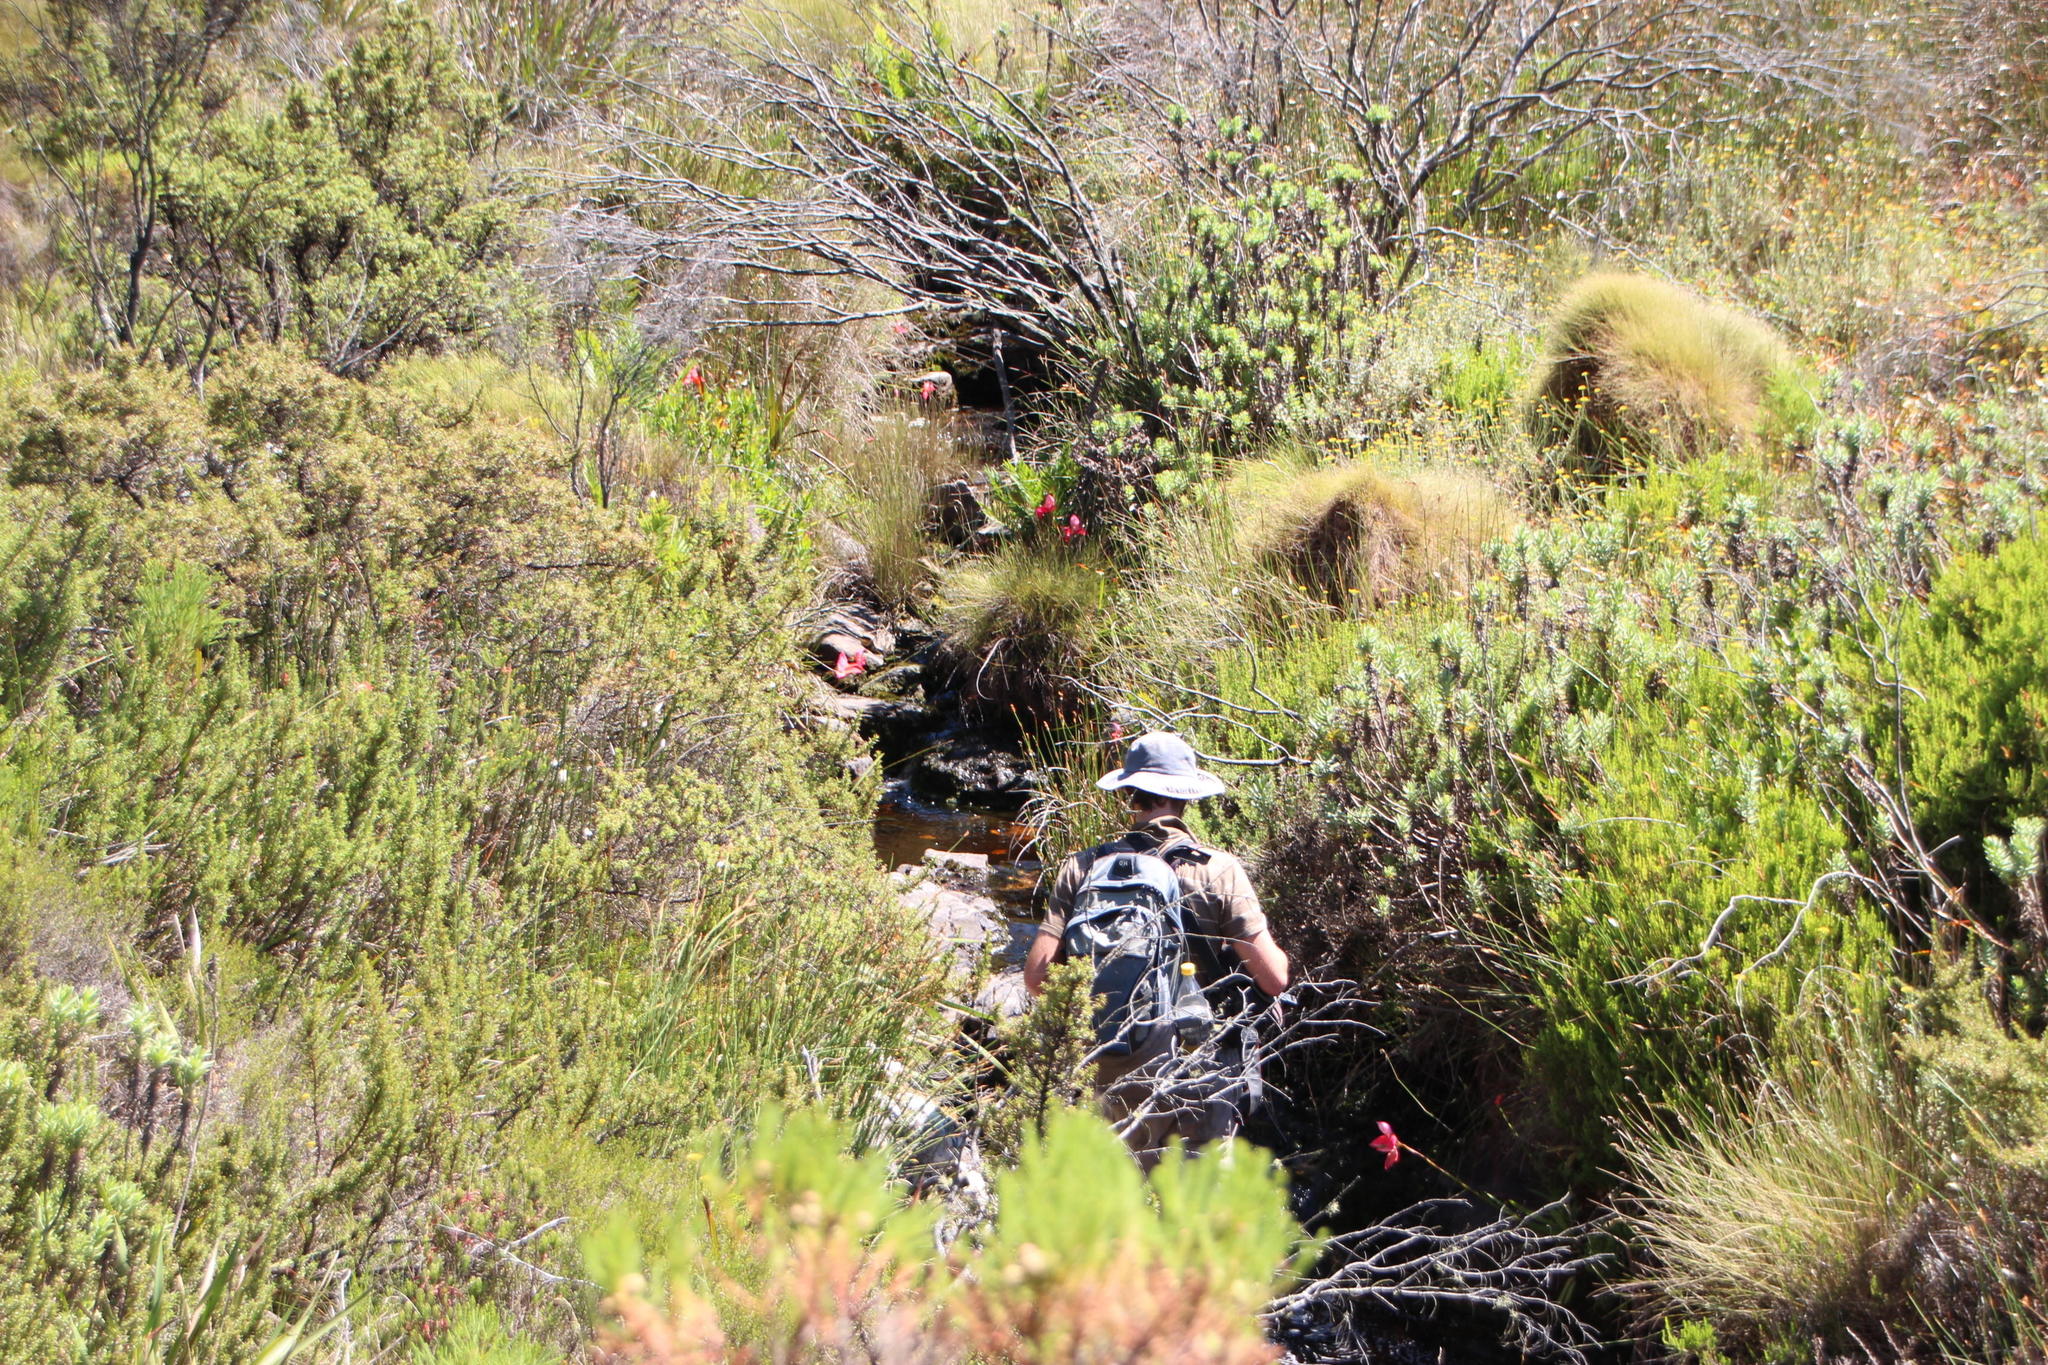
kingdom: Plantae
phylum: Tracheophyta
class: Liliopsida
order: Asparagales
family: Orchidaceae
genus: Disa
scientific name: Disa uniflora
